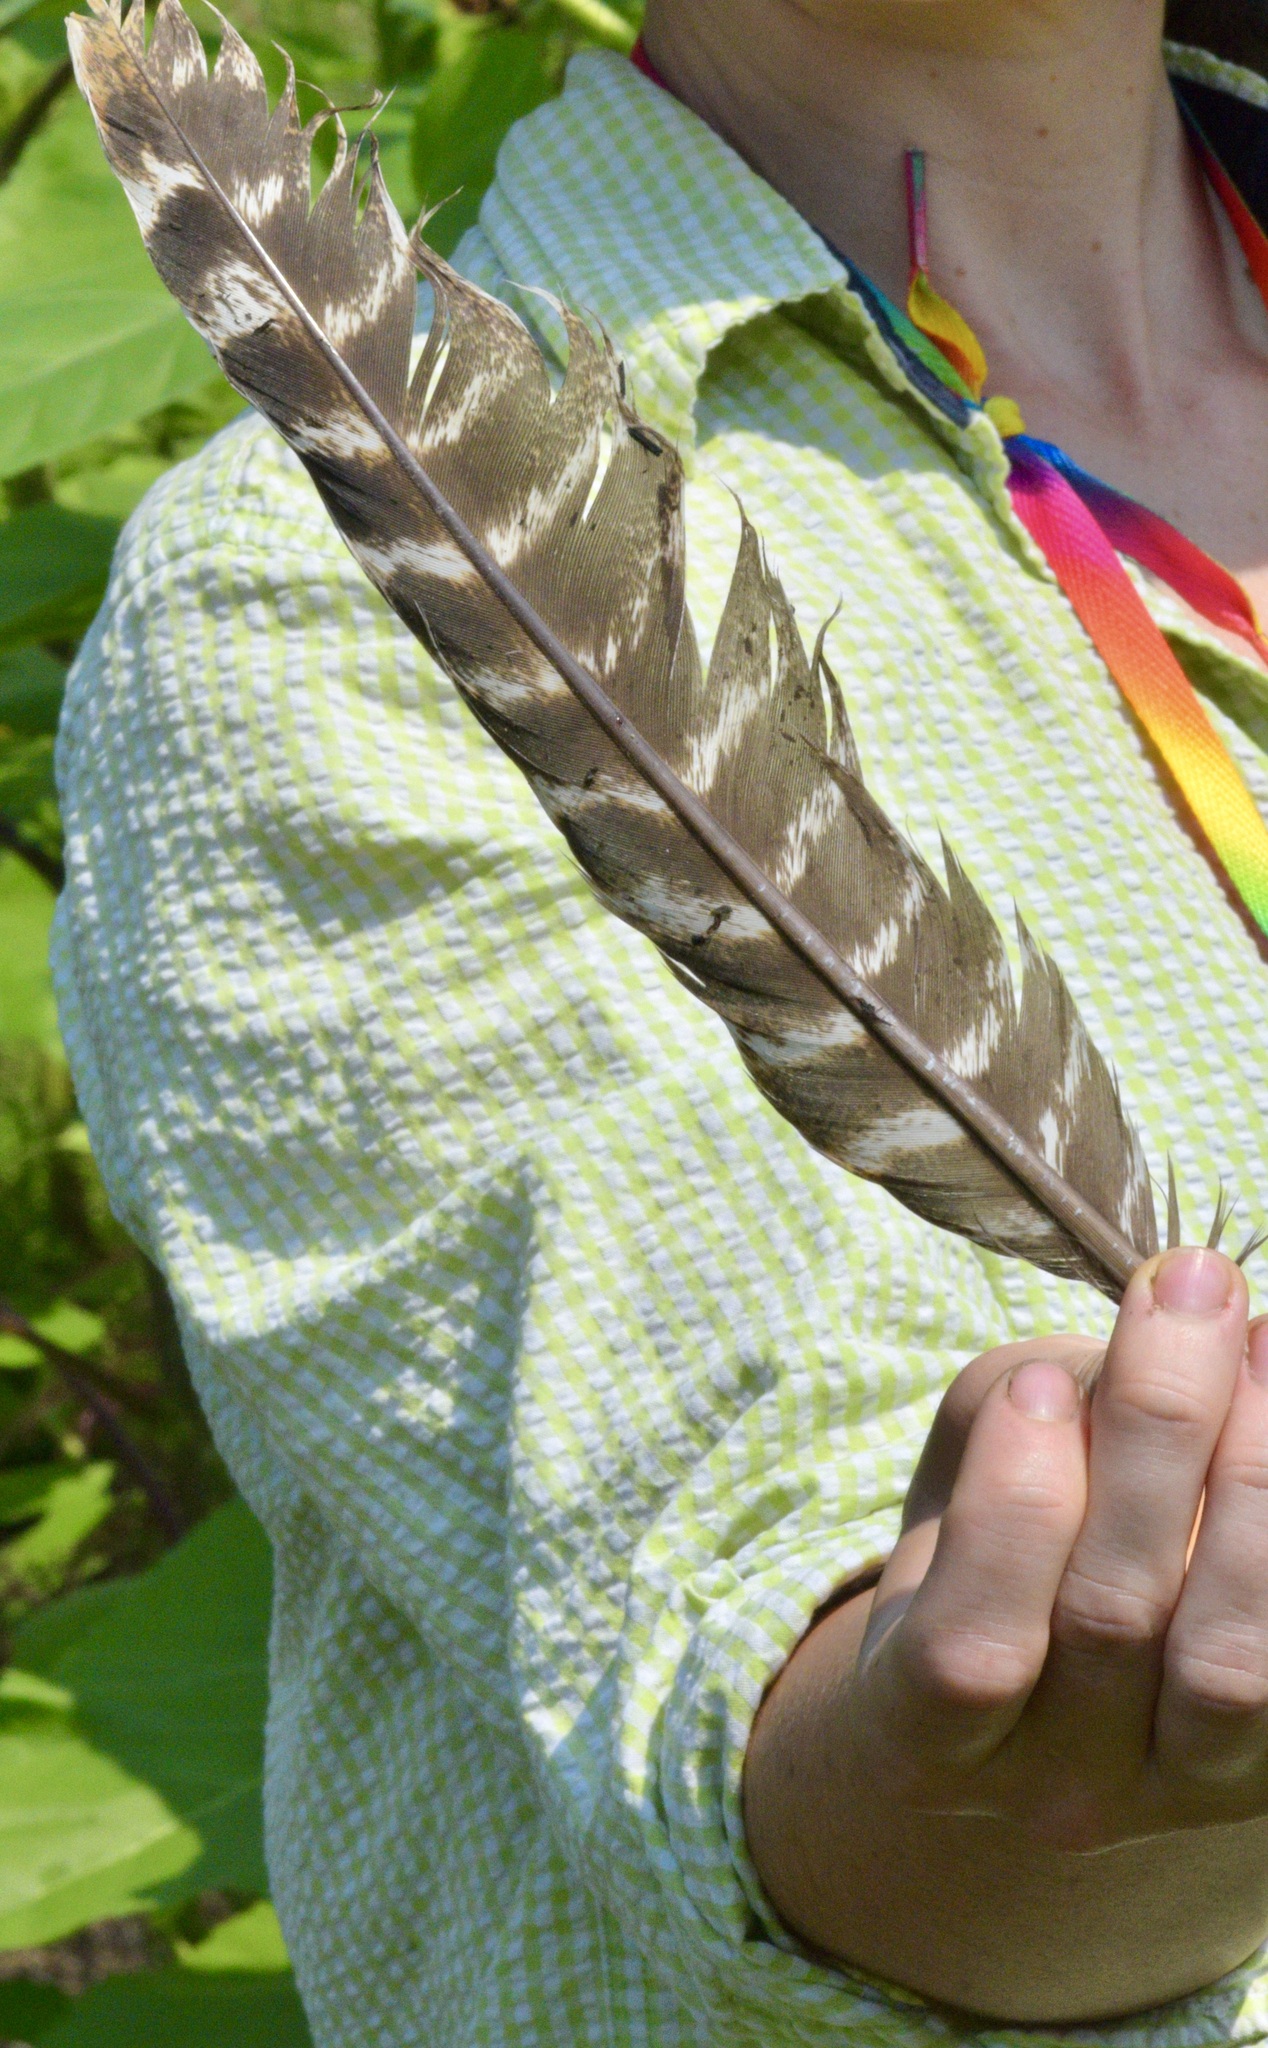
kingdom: Animalia
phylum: Chordata
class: Aves
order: Galliformes
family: Phasianidae
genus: Meleagris
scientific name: Meleagris gallopavo
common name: Wild turkey
